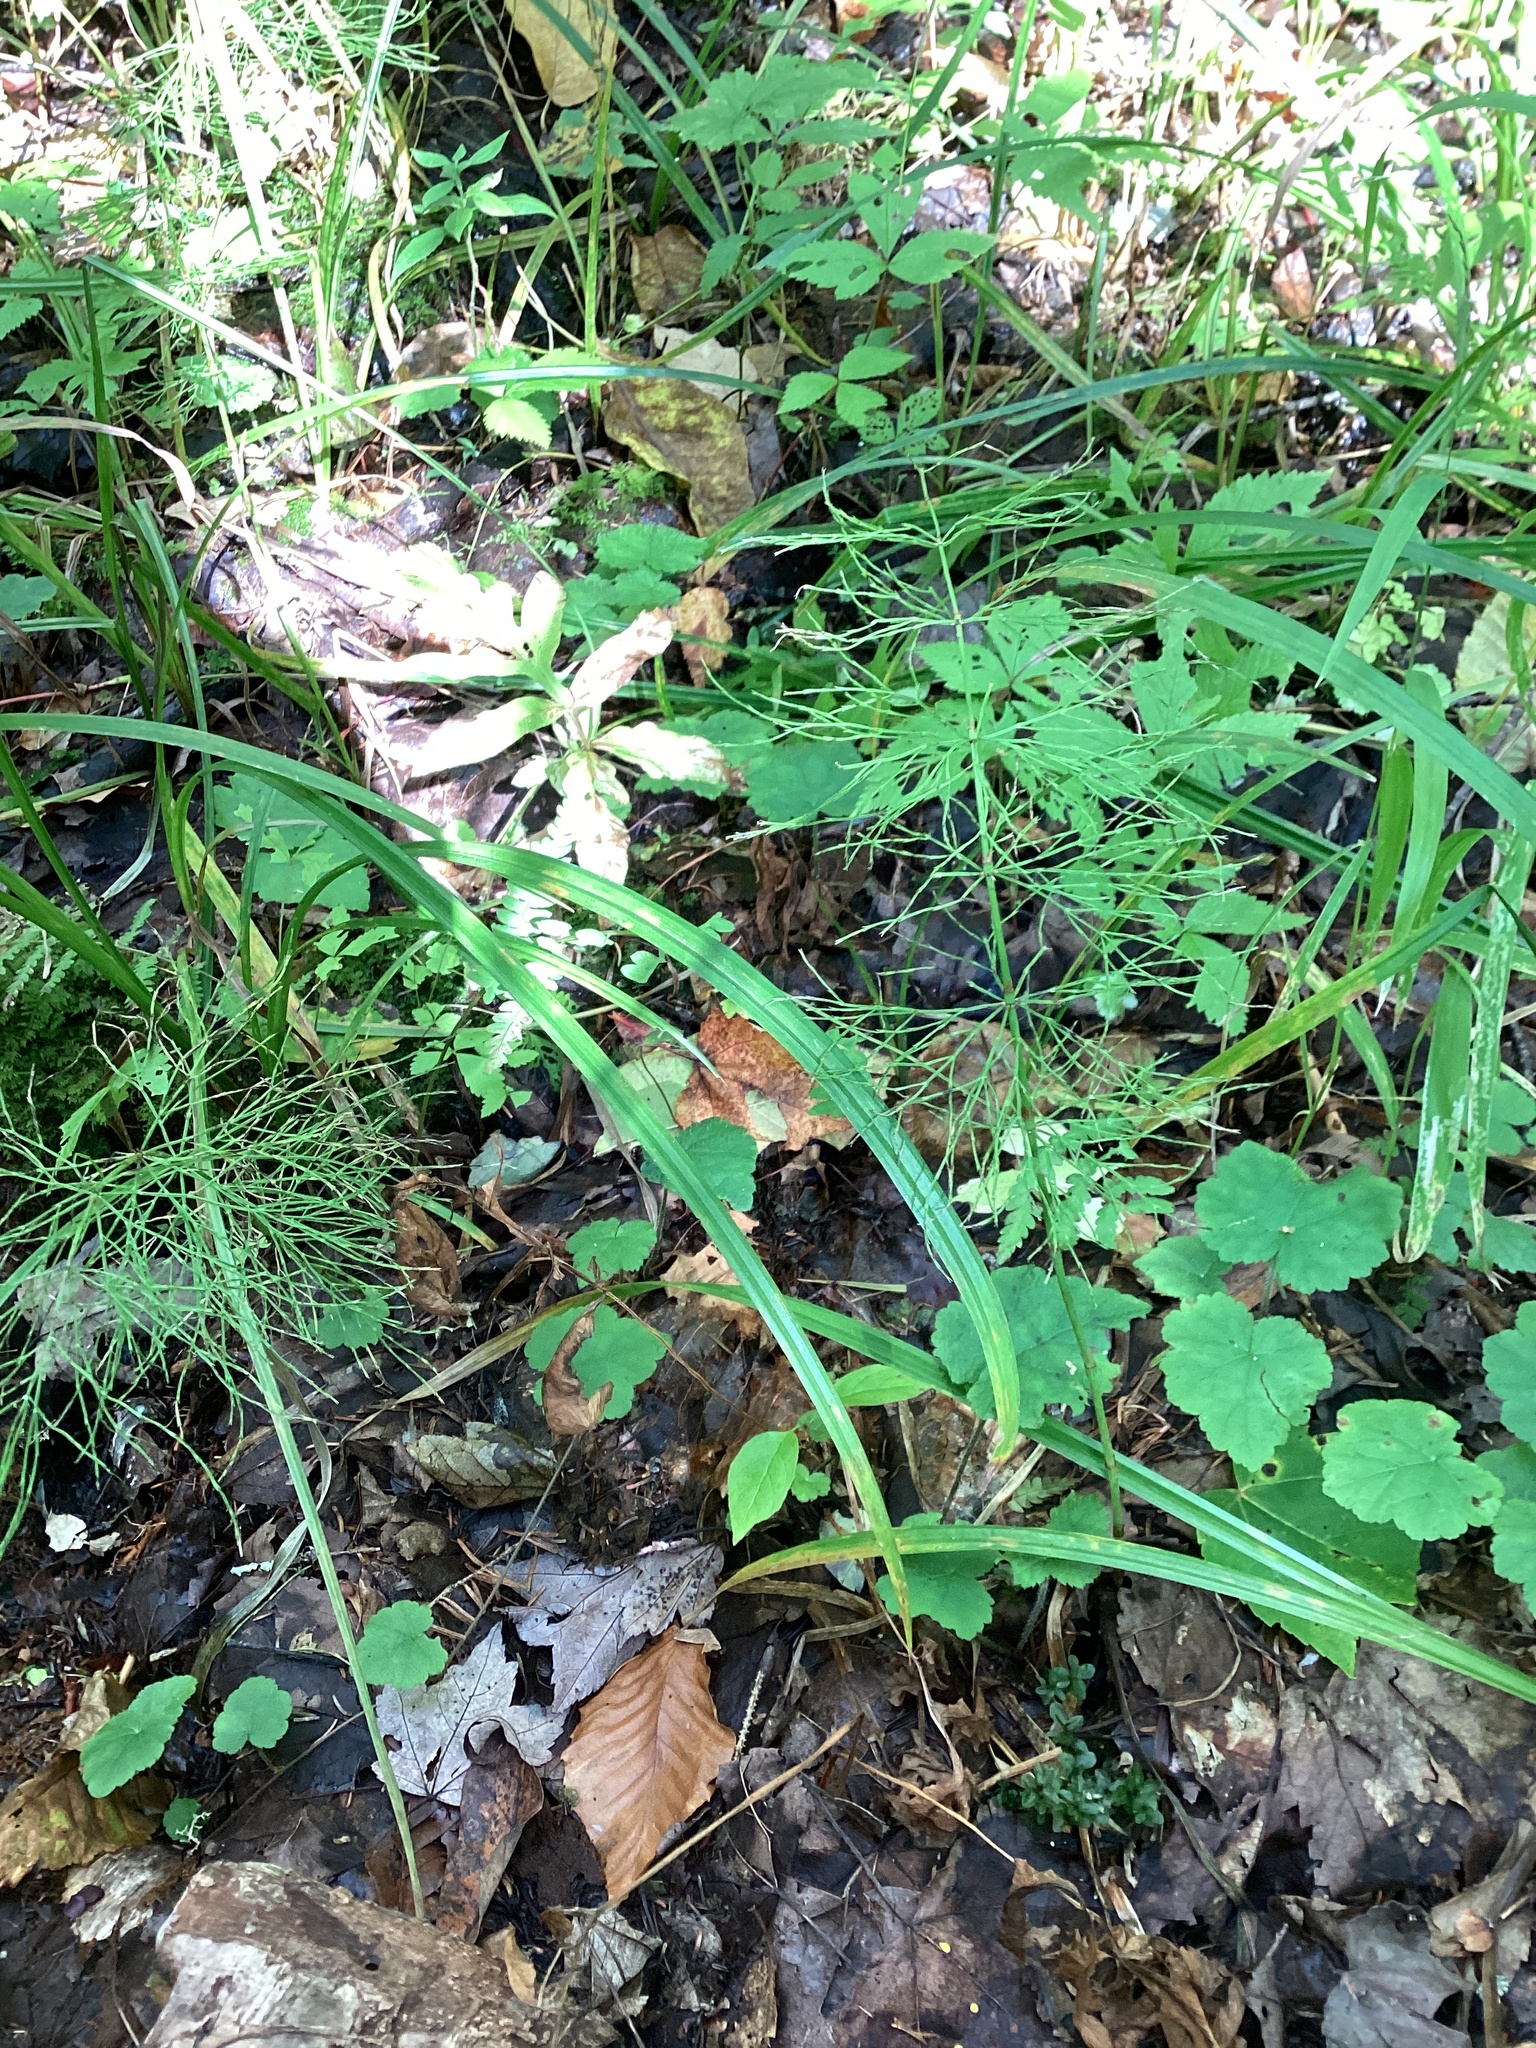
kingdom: Plantae
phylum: Tracheophyta
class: Polypodiopsida
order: Equisetales
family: Equisetaceae
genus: Equisetum
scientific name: Equisetum sylvaticum
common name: Wood horsetail
